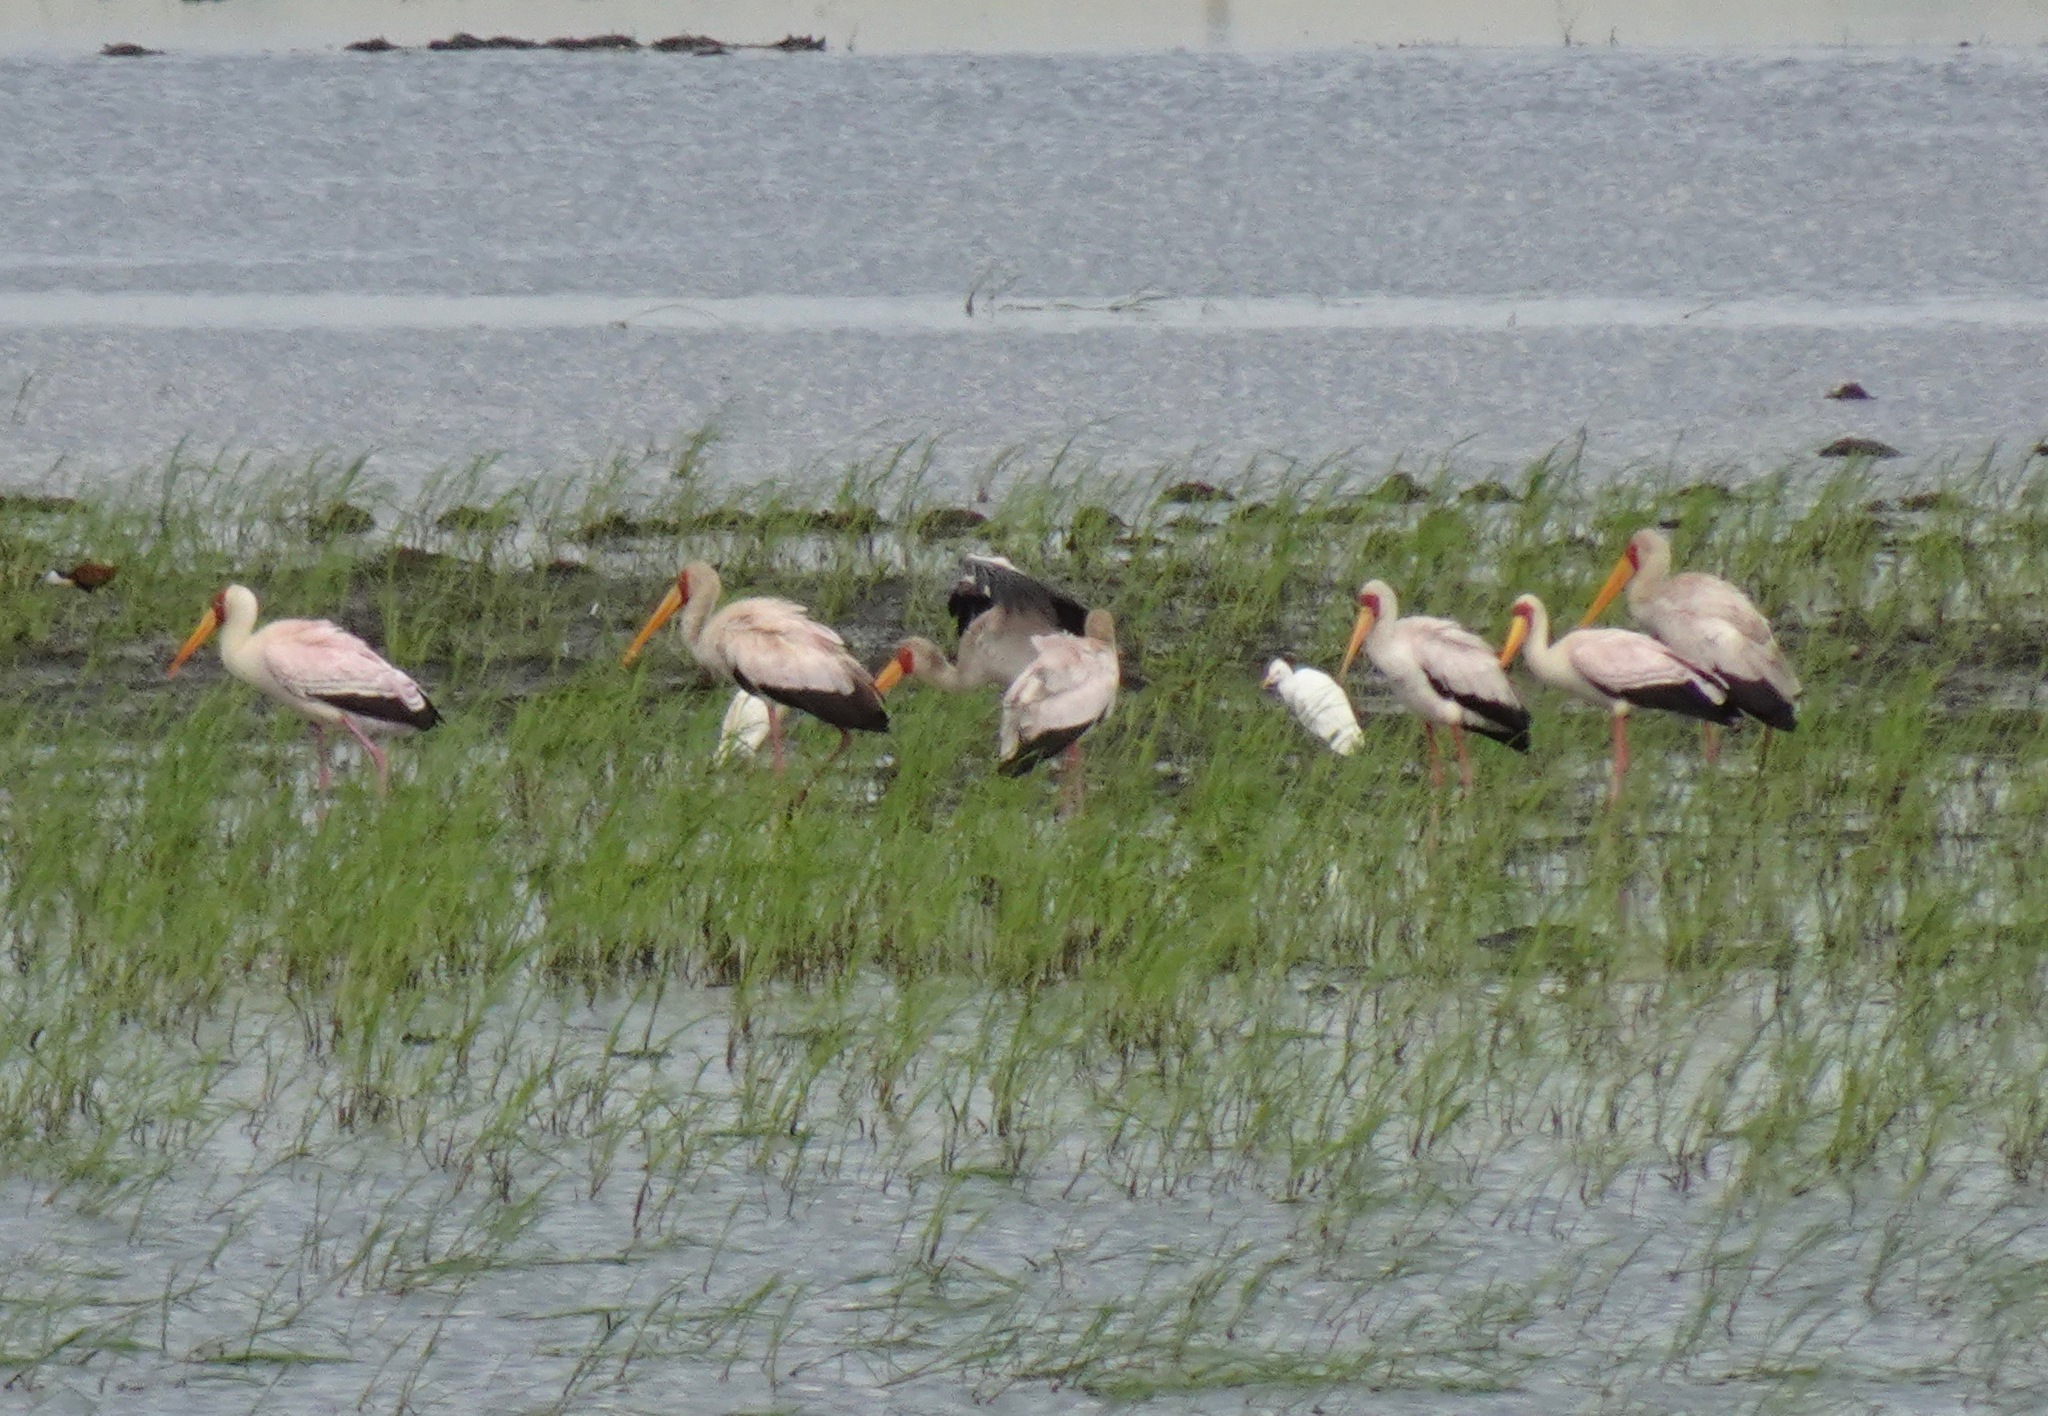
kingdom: Animalia
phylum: Chordata
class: Aves
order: Ciconiiformes
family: Ciconiidae
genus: Mycteria
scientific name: Mycteria ibis
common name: Yellow-billed stork
